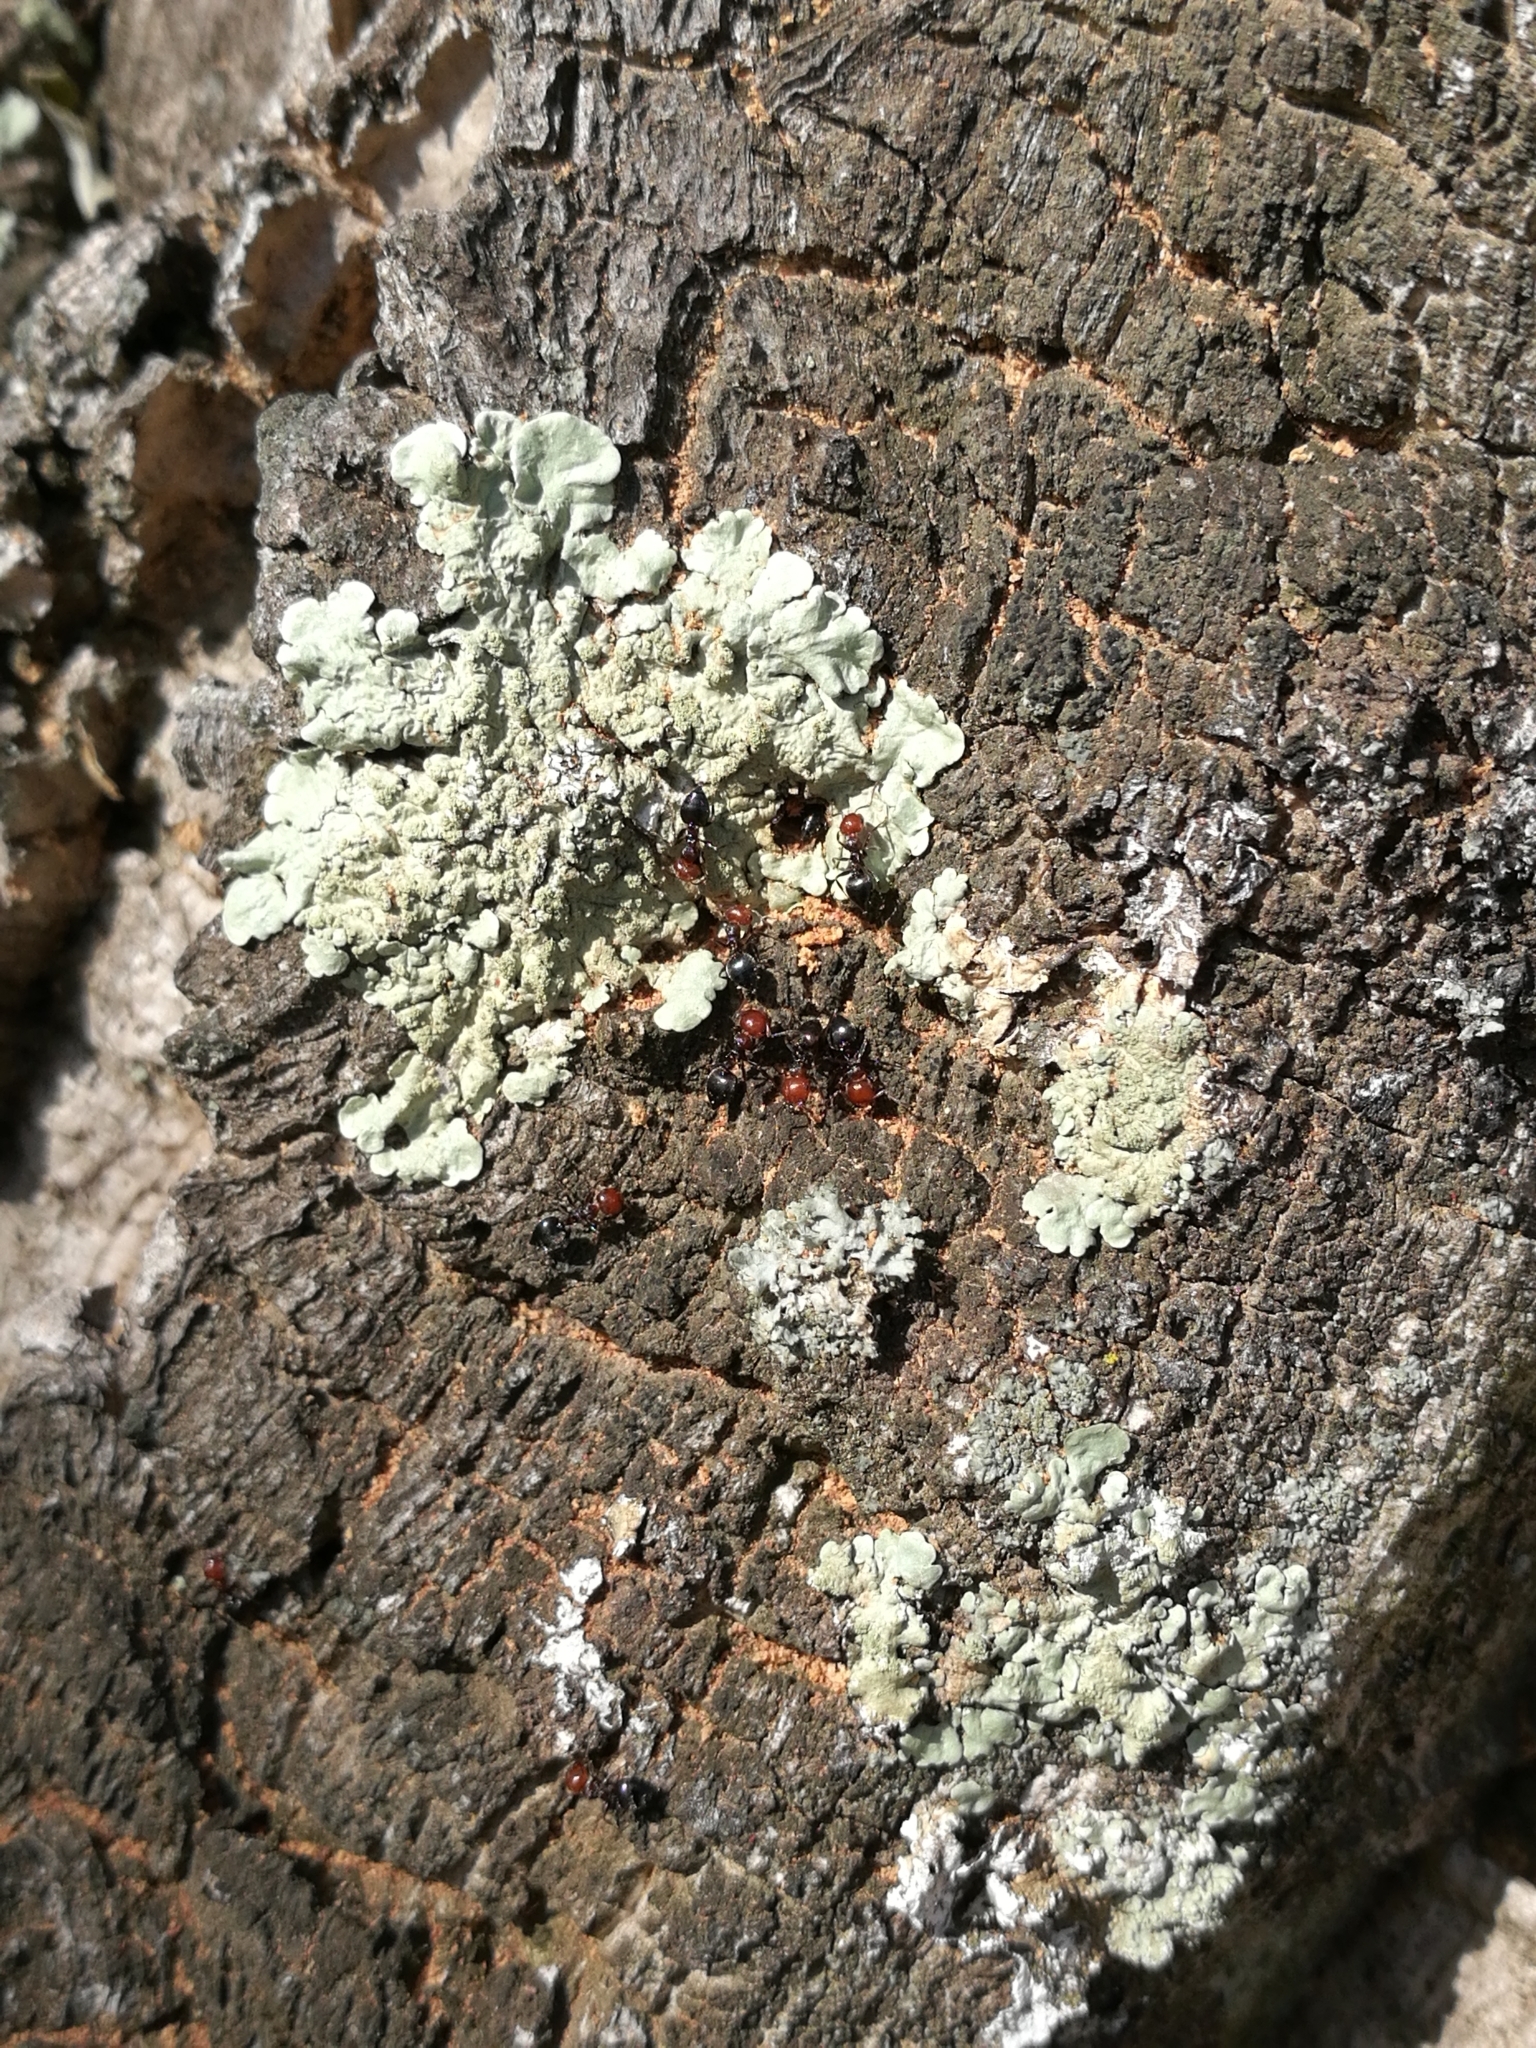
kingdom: Animalia
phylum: Arthropoda
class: Insecta
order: Hymenoptera
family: Formicidae
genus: Crematogaster
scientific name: Crematogaster scutellaris
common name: Fourmi du liège
